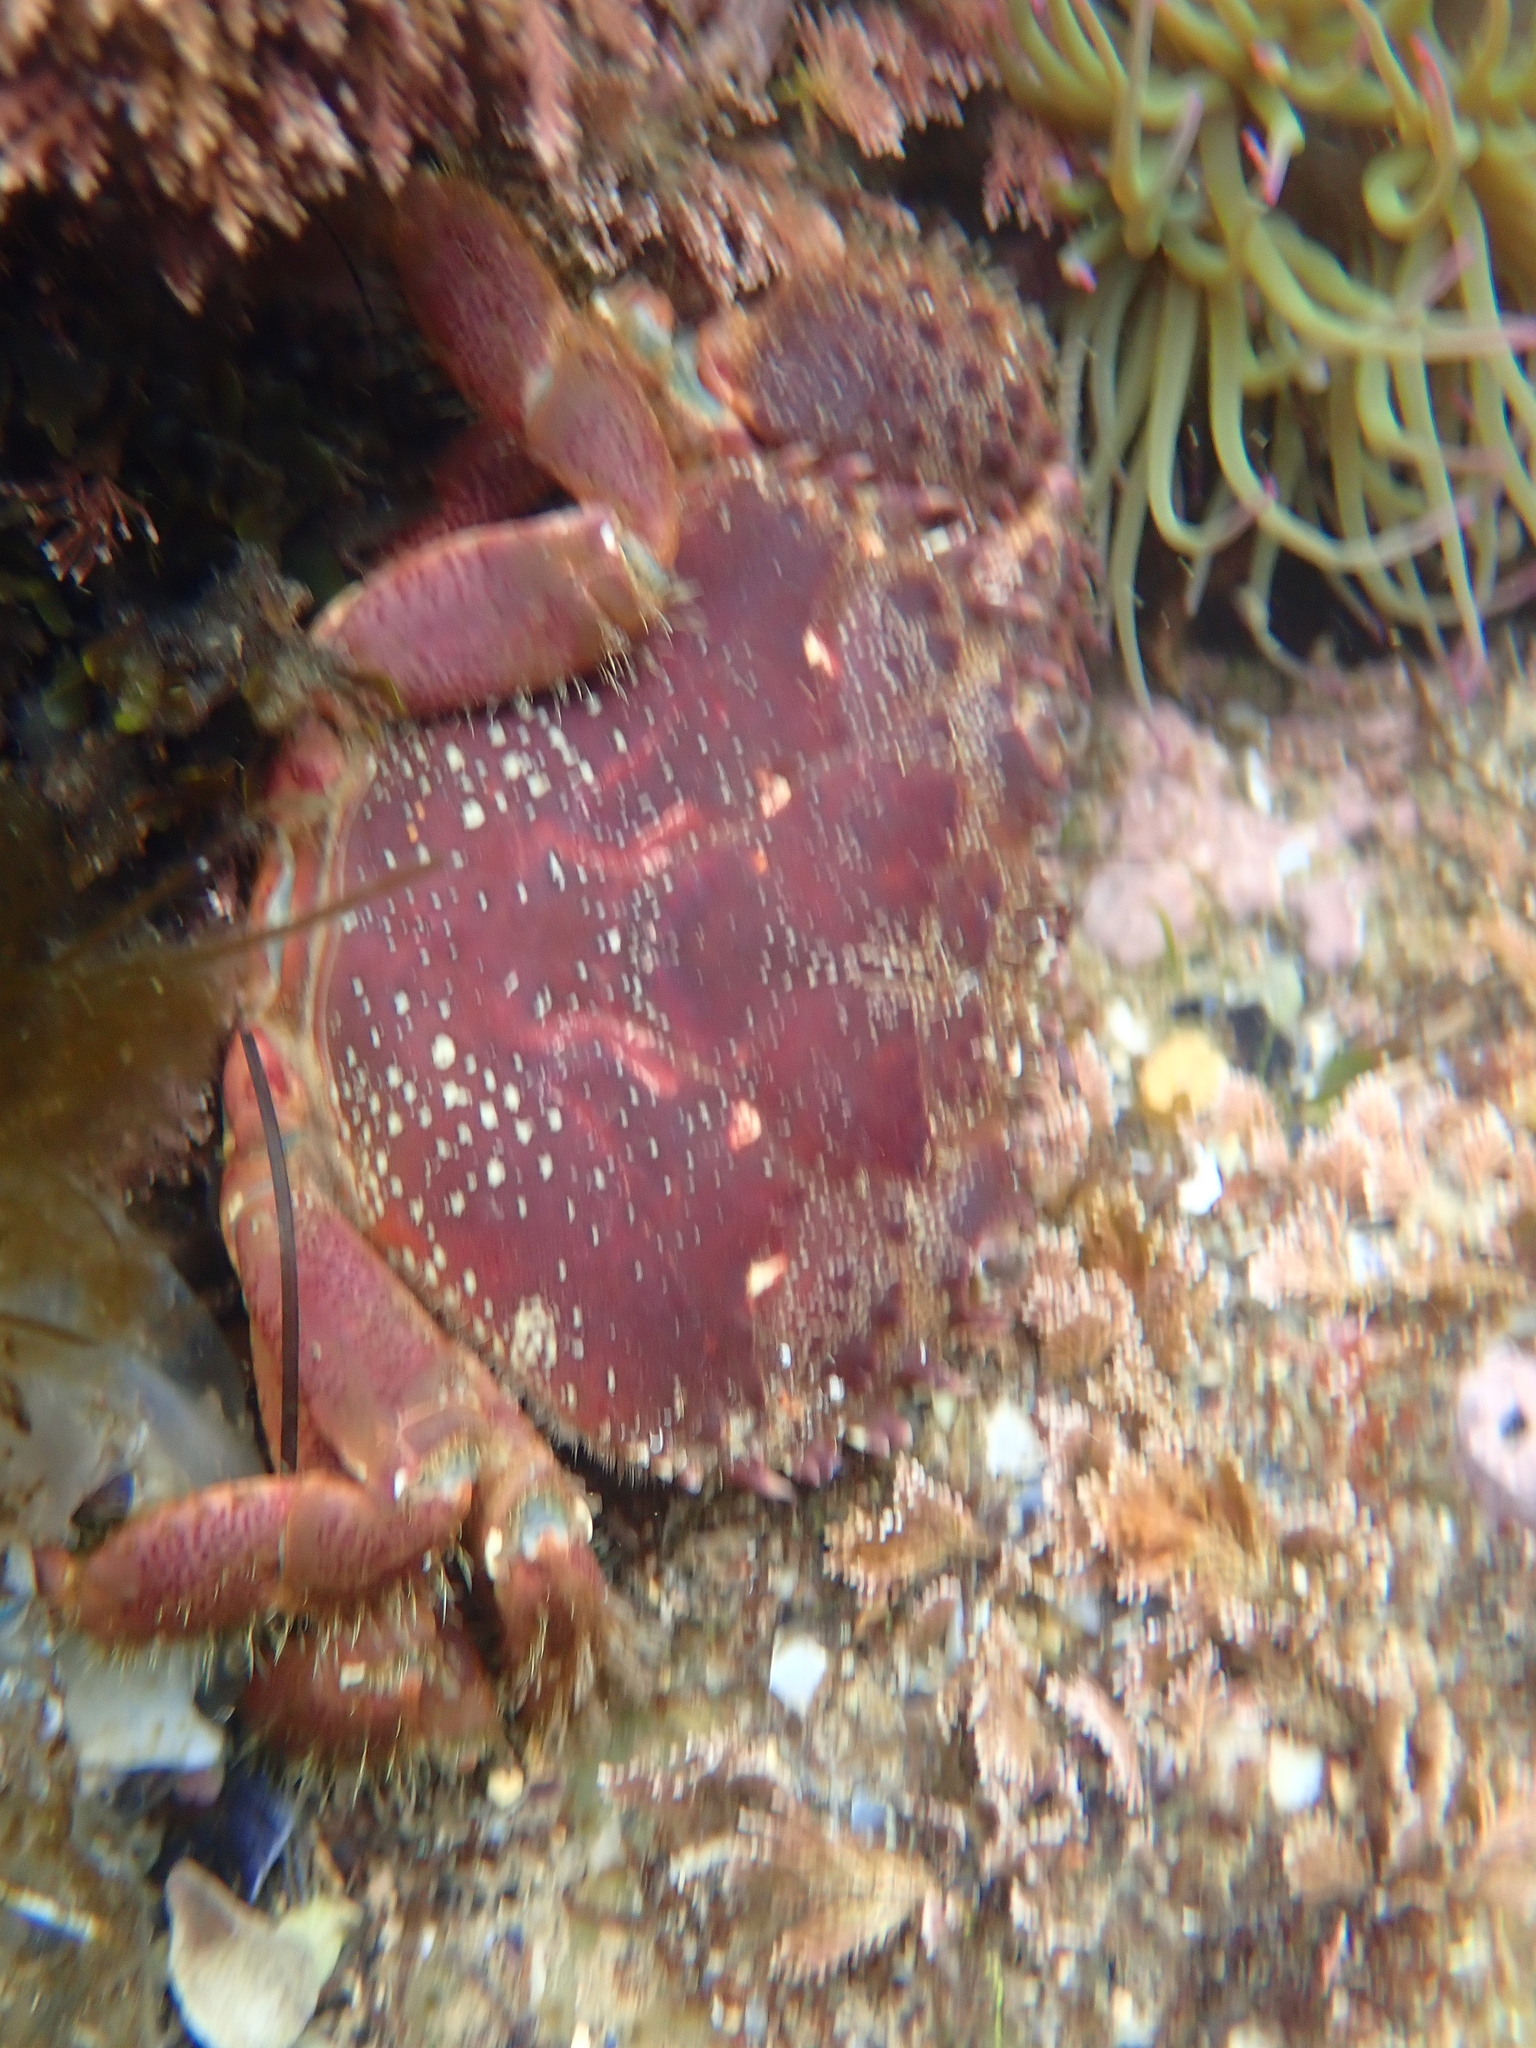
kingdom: Animalia
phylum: Arthropoda
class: Malacostraca
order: Decapoda
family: Eriphiidae
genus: Eriphia
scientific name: Eriphia verrucosa
